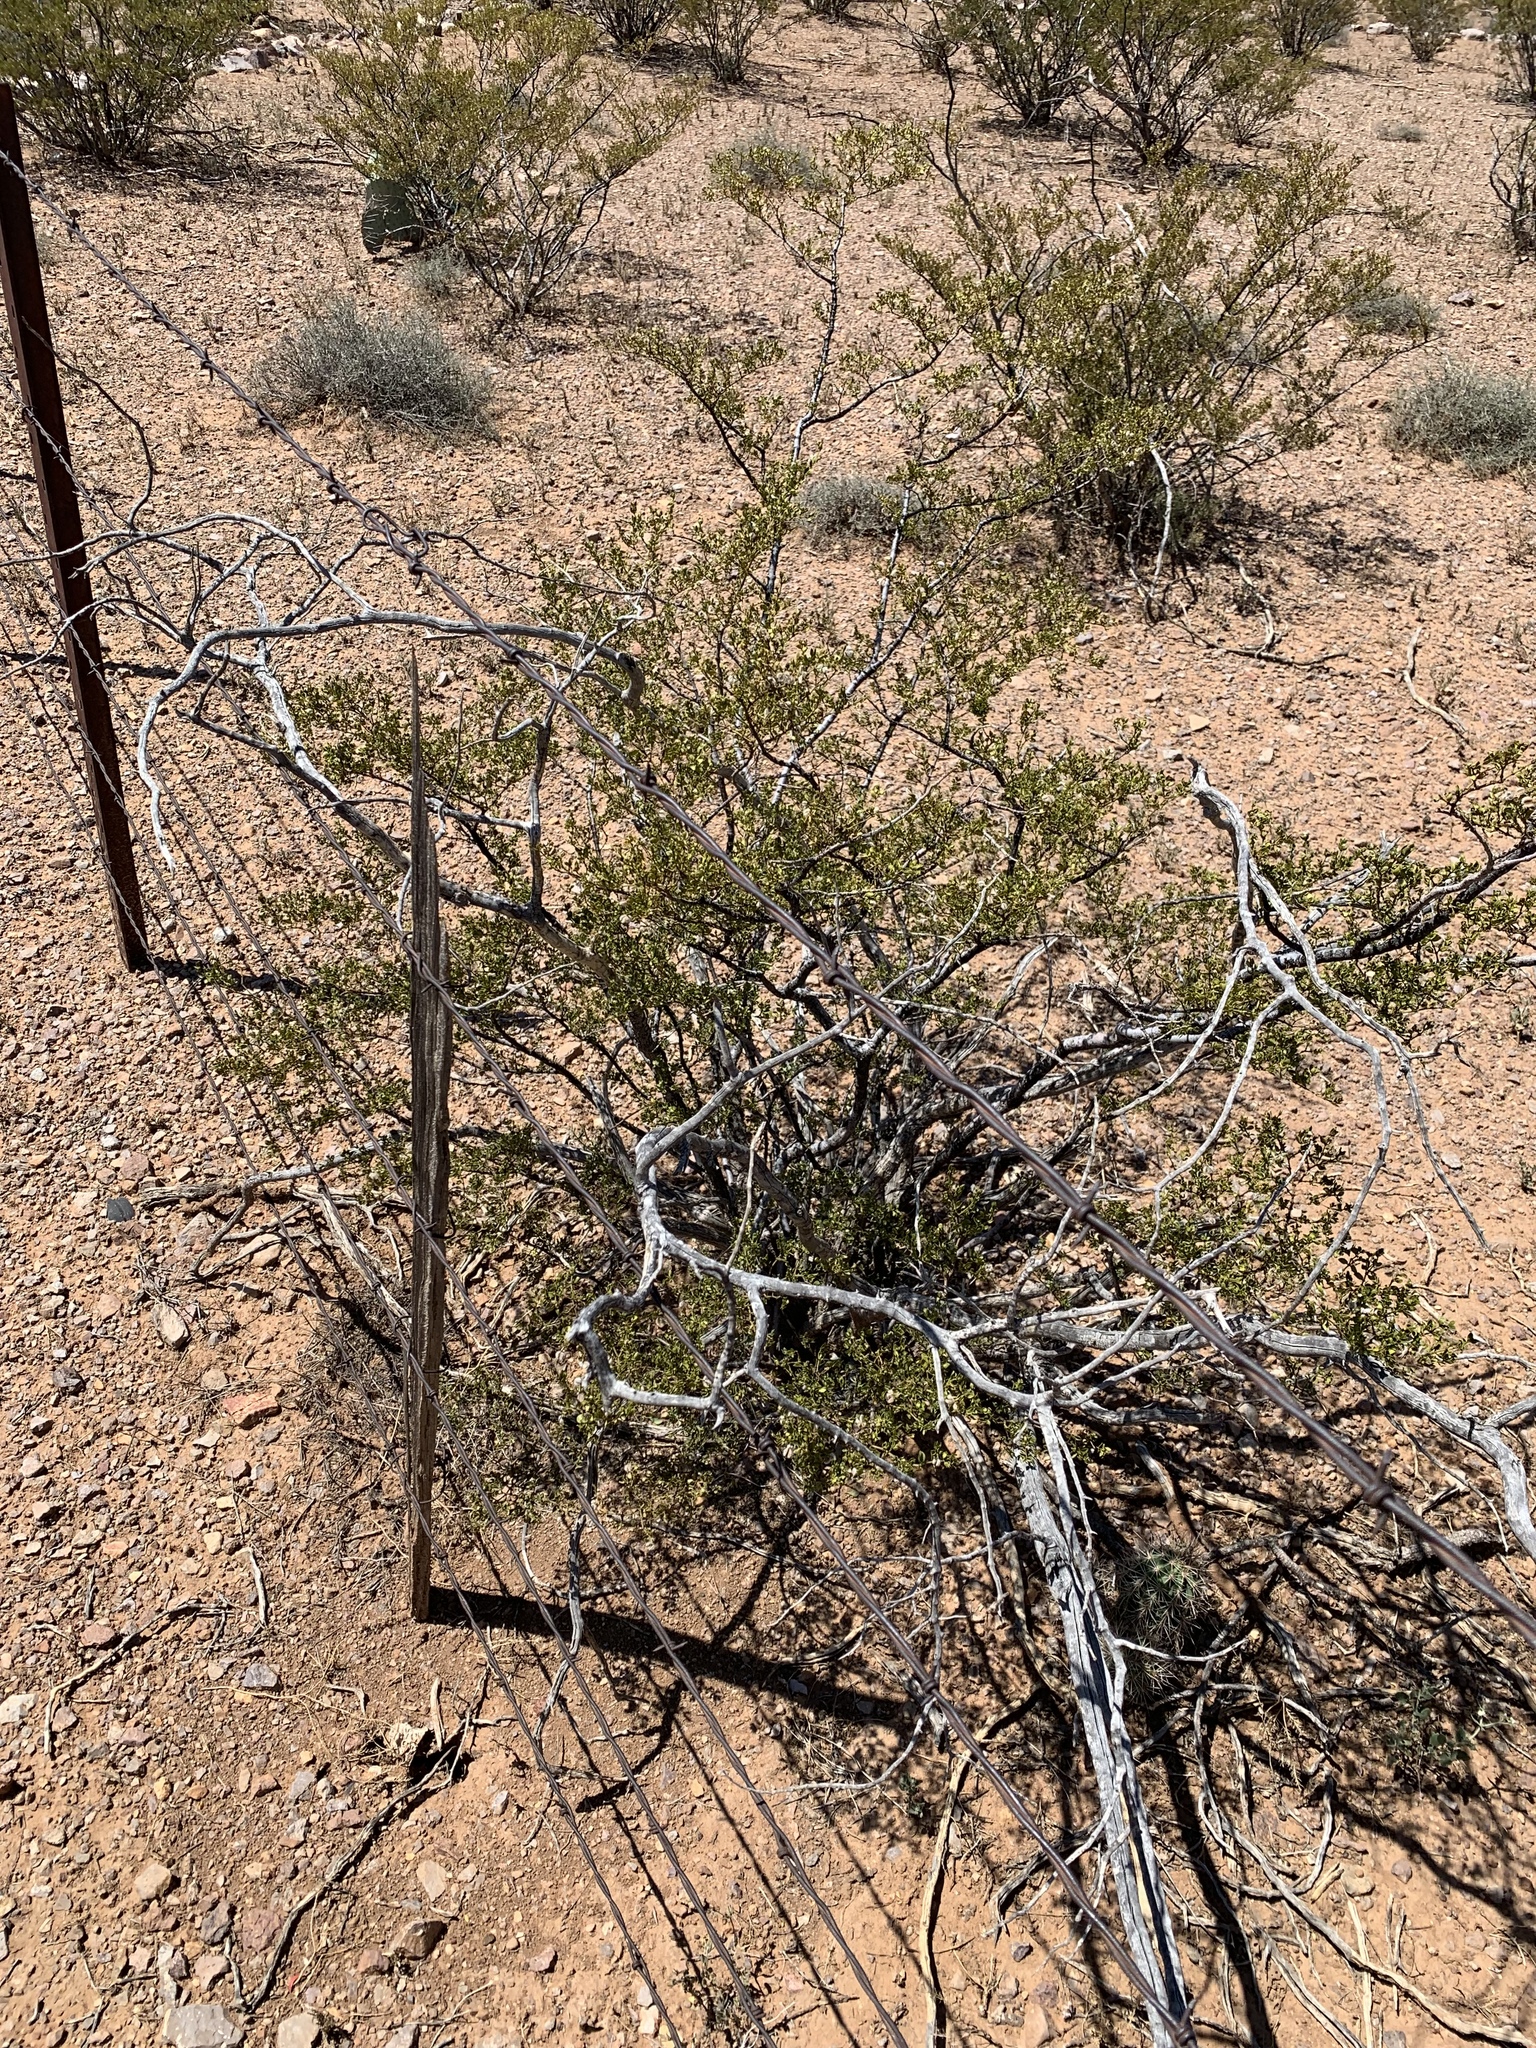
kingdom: Plantae
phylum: Tracheophyta
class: Magnoliopsida
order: Zygophyllales
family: Zygophyllaceae
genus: Larrea
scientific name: Larrea tridentata
